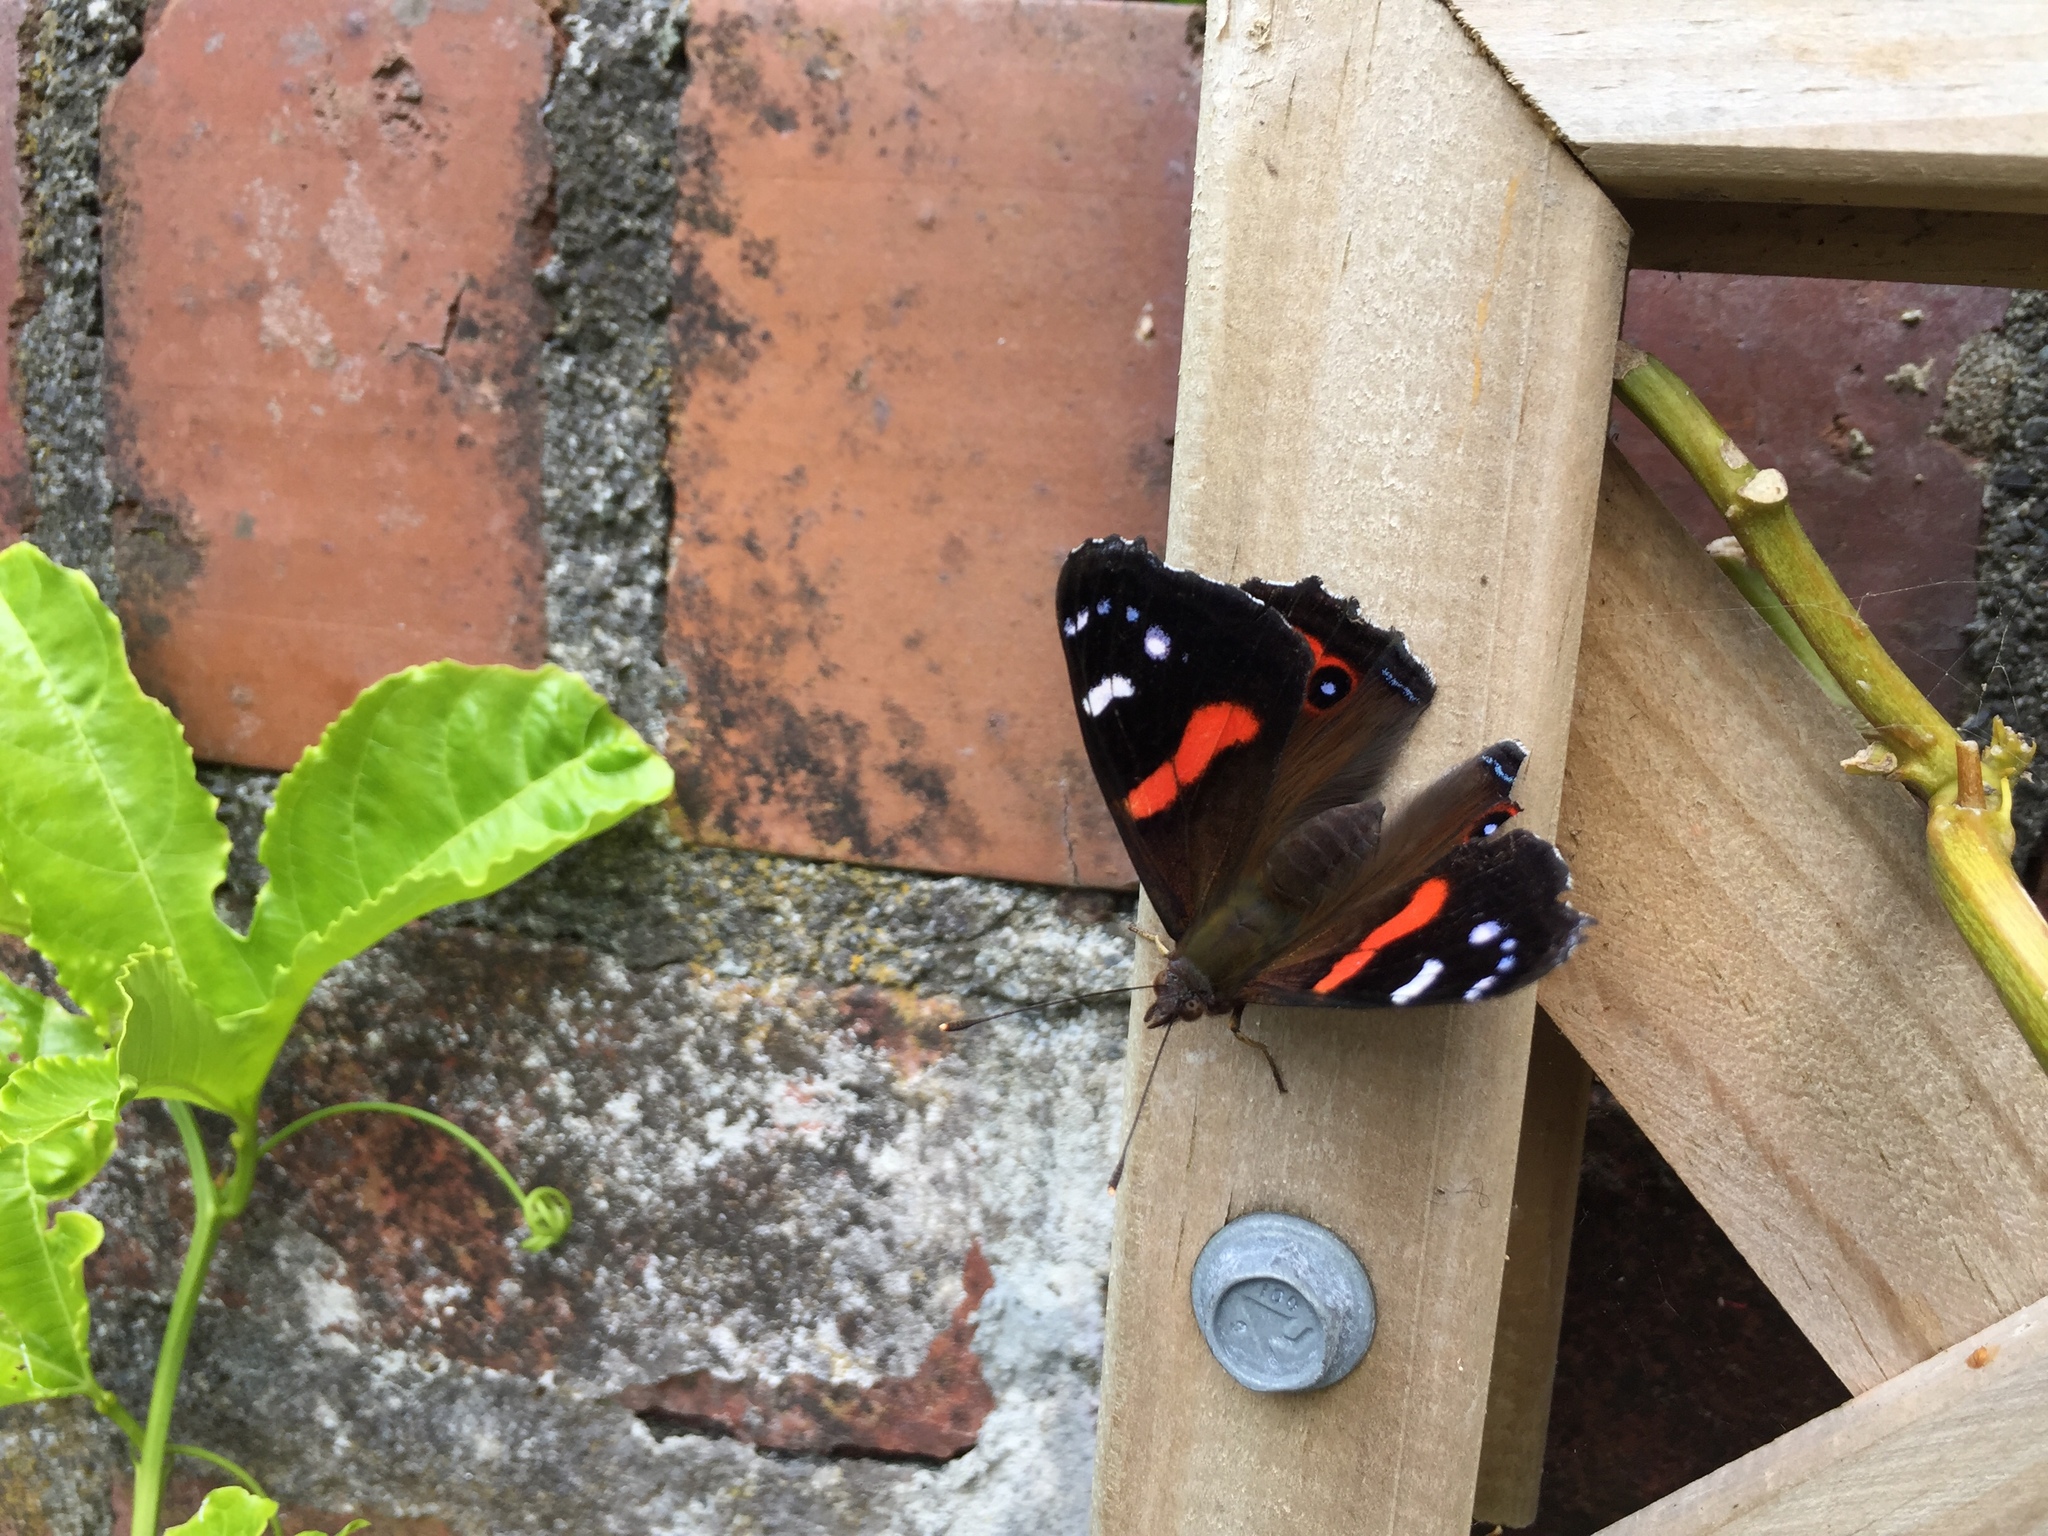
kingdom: Animalia
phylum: Arthropoda
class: Insecta
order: Lepidoptera
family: Nymphalidae
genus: Vanessa
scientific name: Vanessa gonerilla
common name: New zealand red admiral
